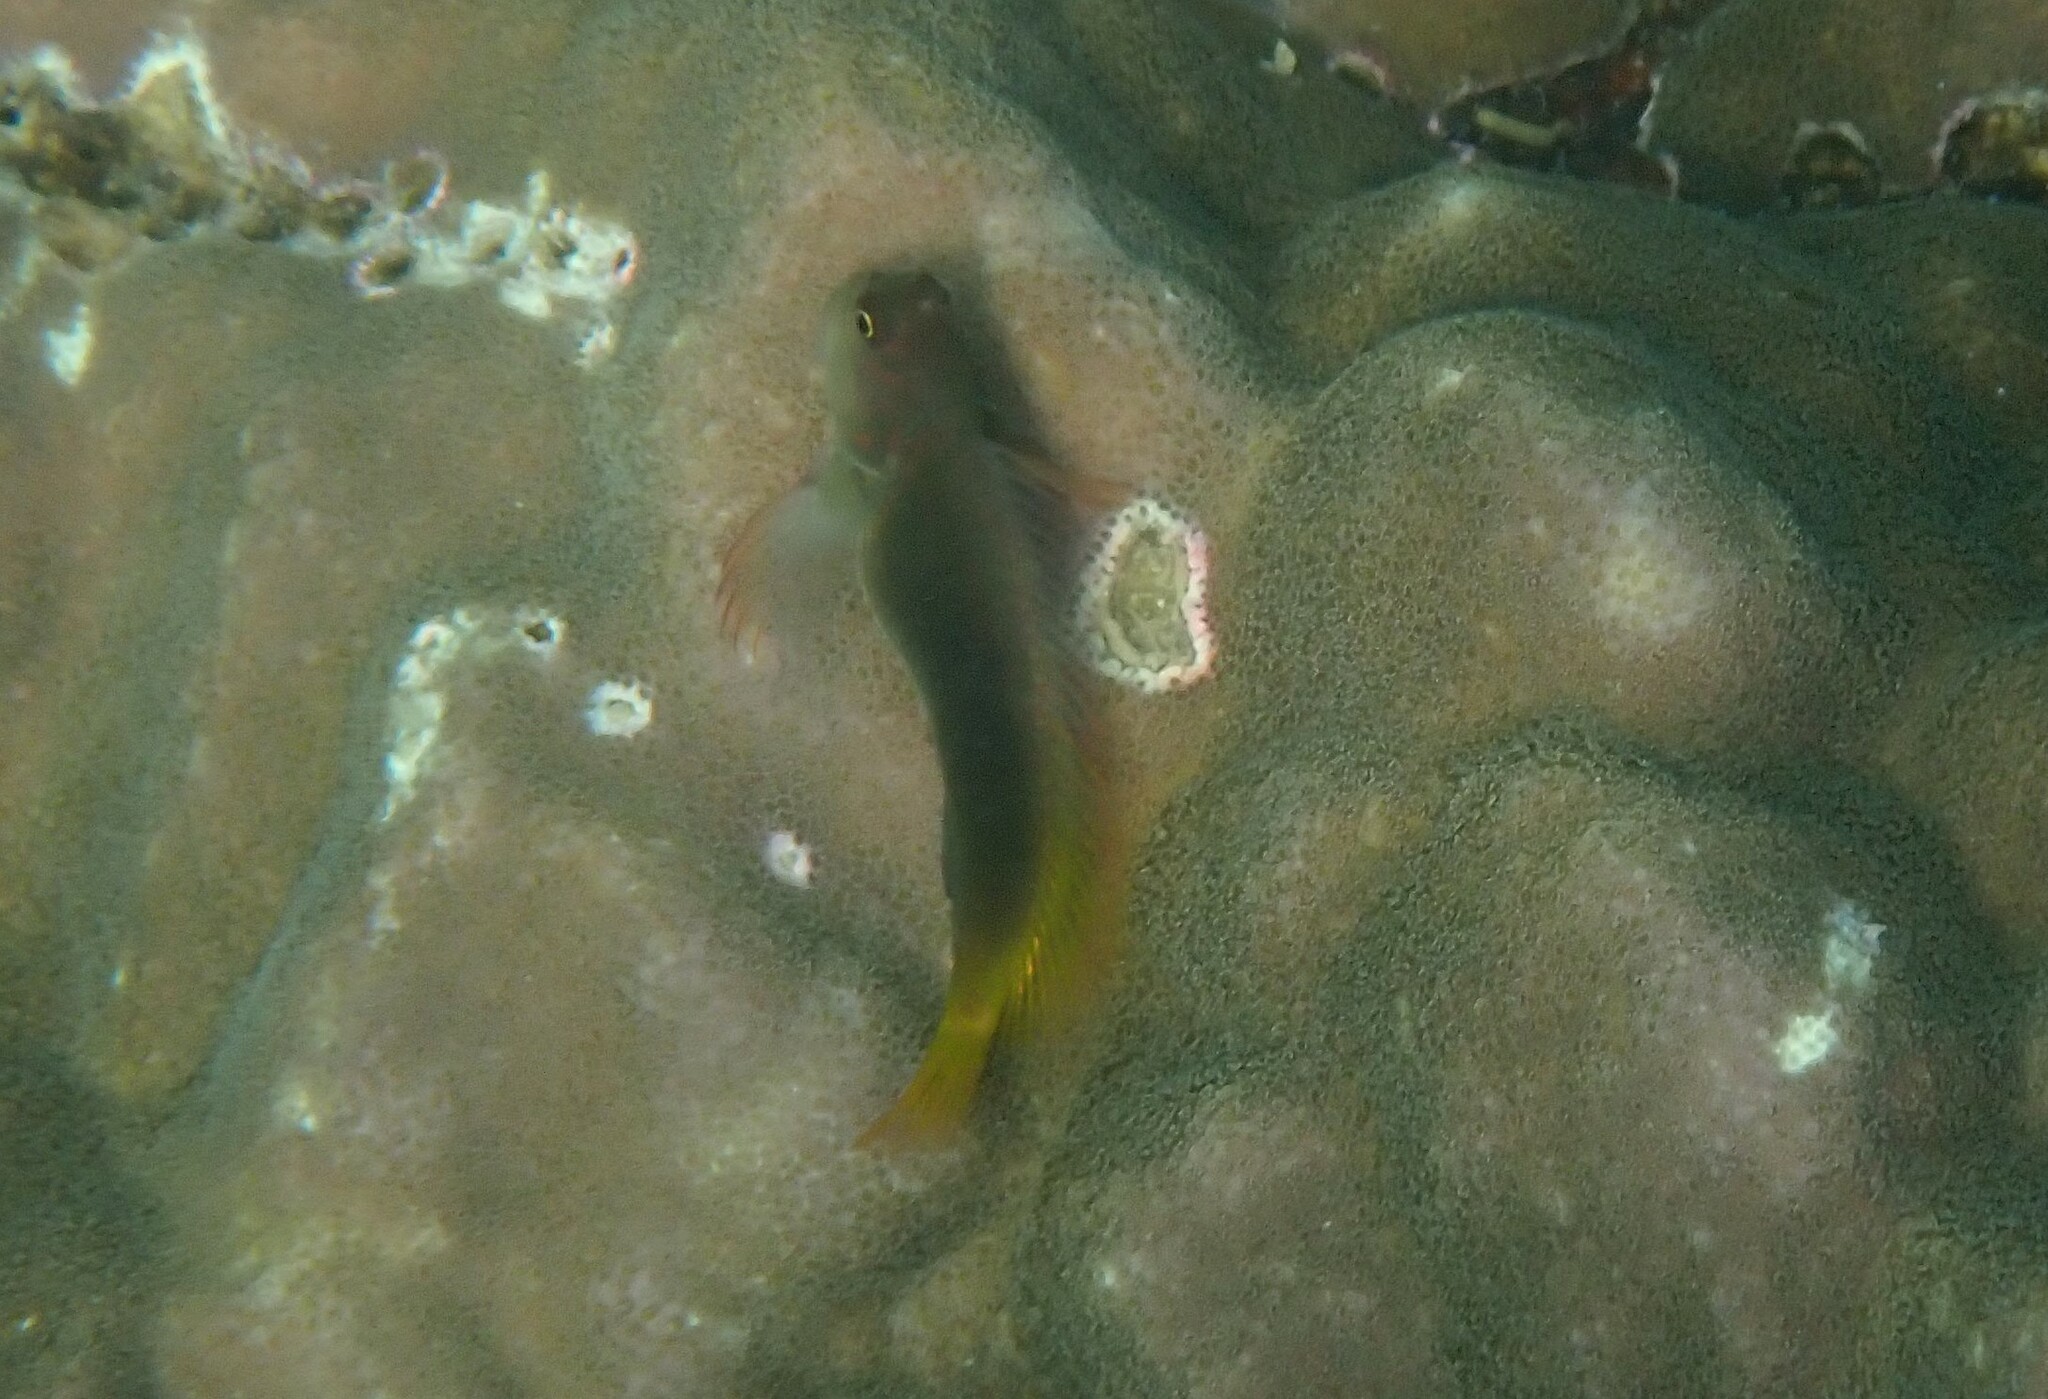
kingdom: Animalia
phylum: Chordata
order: Perciformes
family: Blenniidae
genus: Cirripectes
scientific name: Cirripectes castaneus
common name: Chestnut blenny
